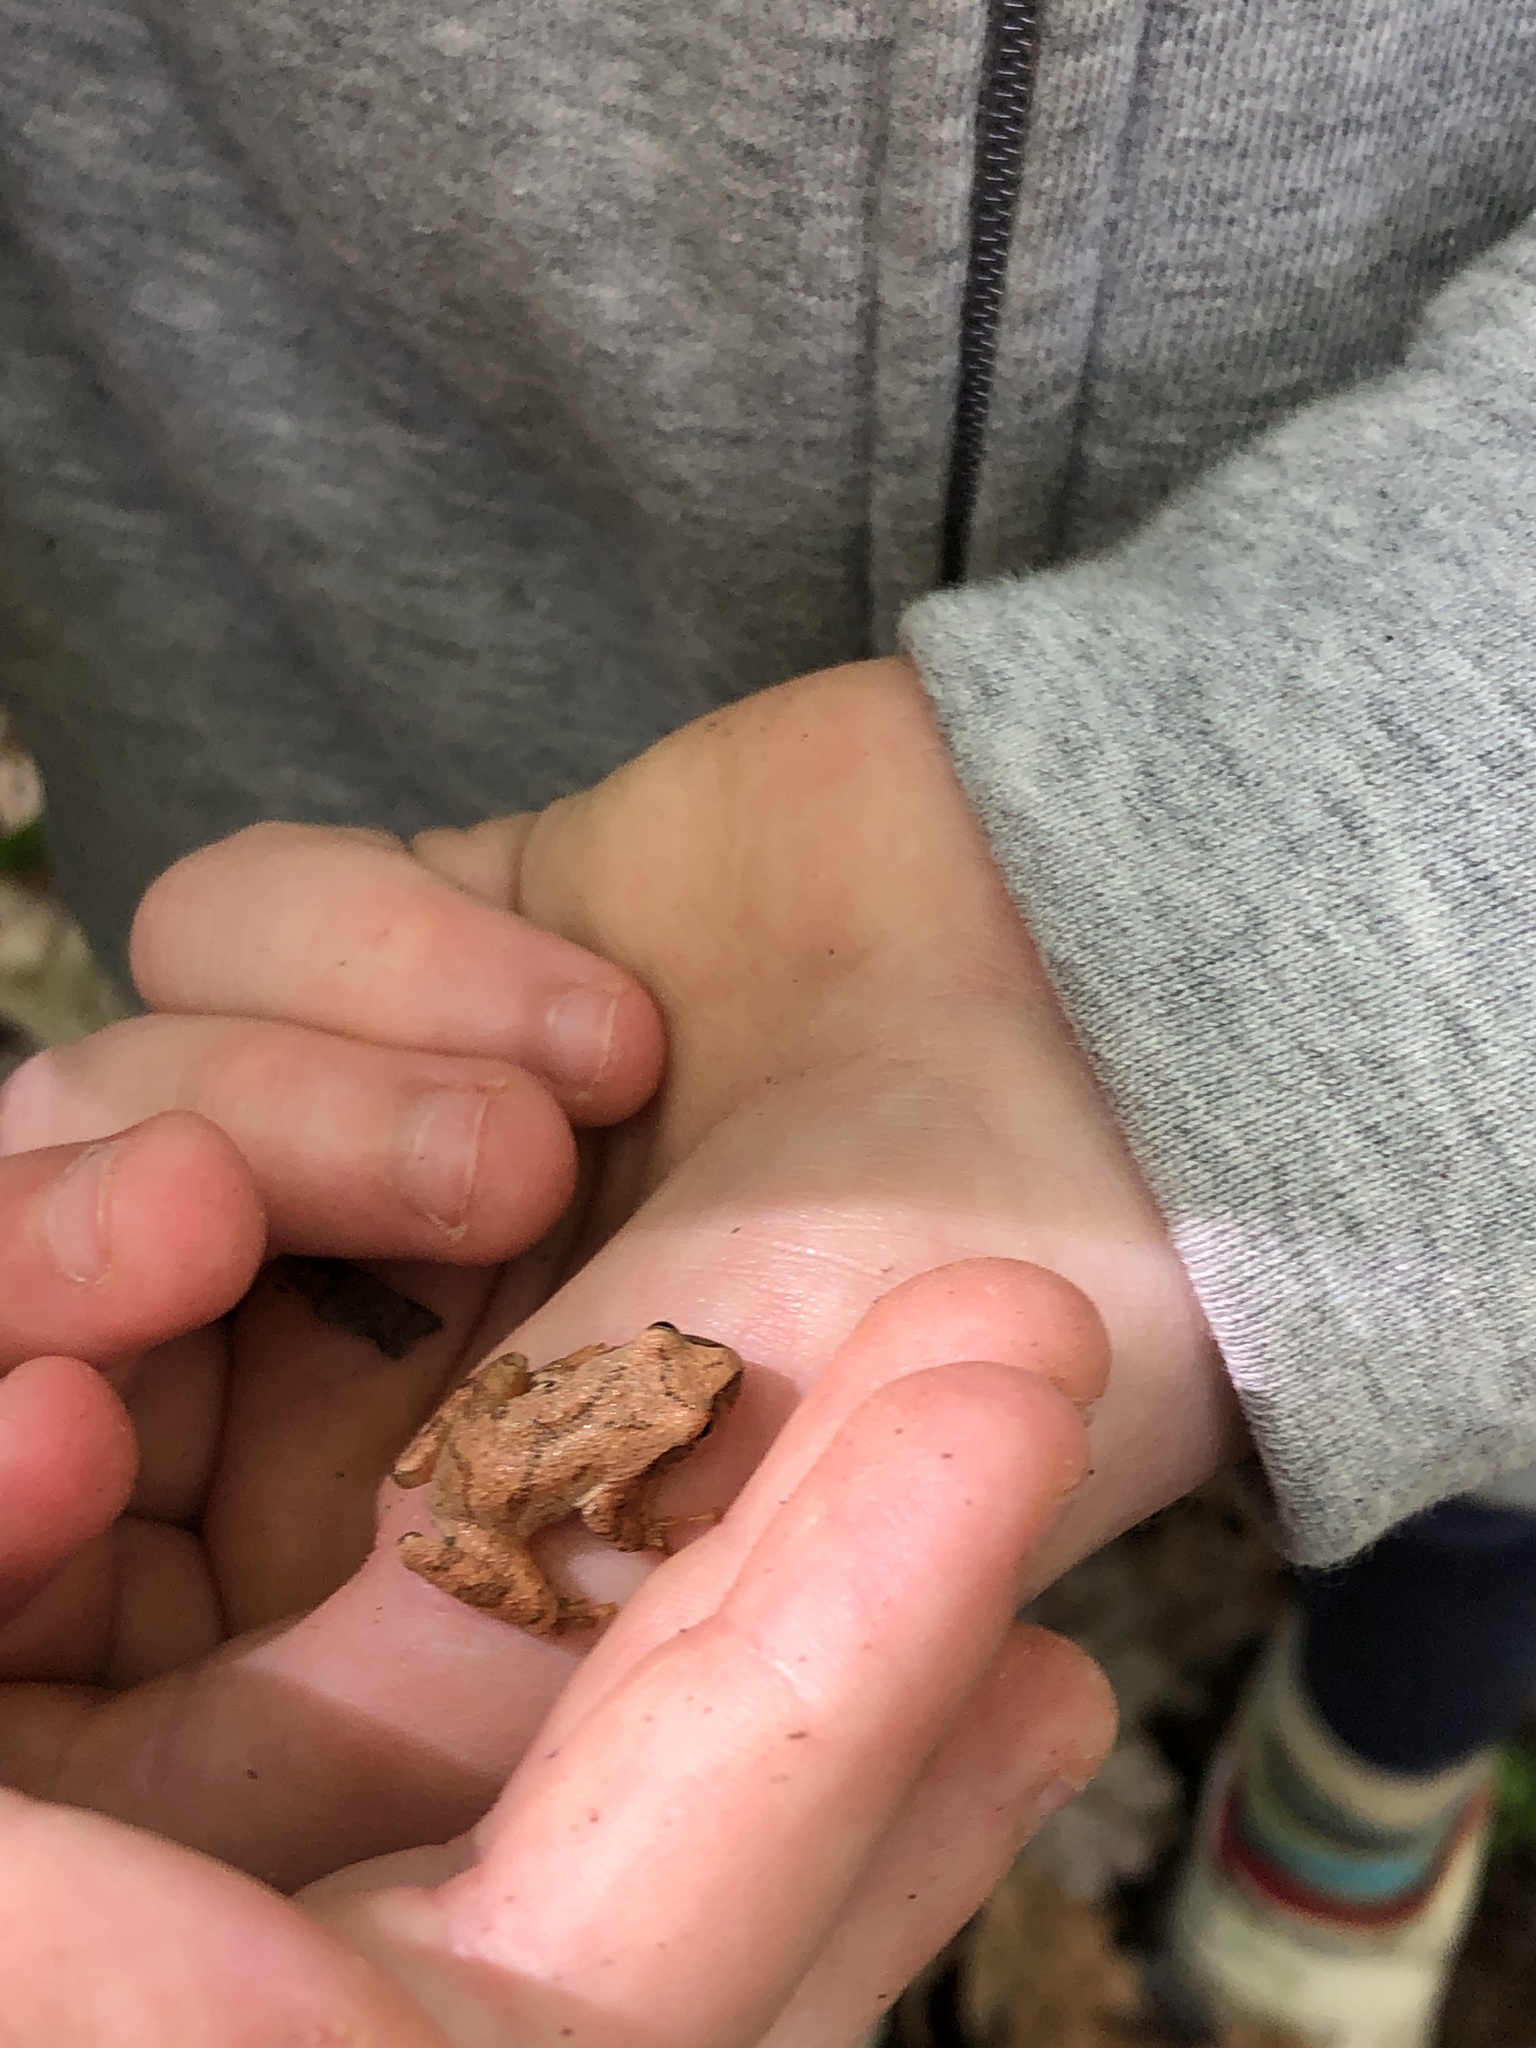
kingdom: Animalia
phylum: Chordata
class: Amphibia
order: Anura
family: Hylidae
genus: Pseudacris
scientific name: Pseudacris crucifer
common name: Spring peeper
